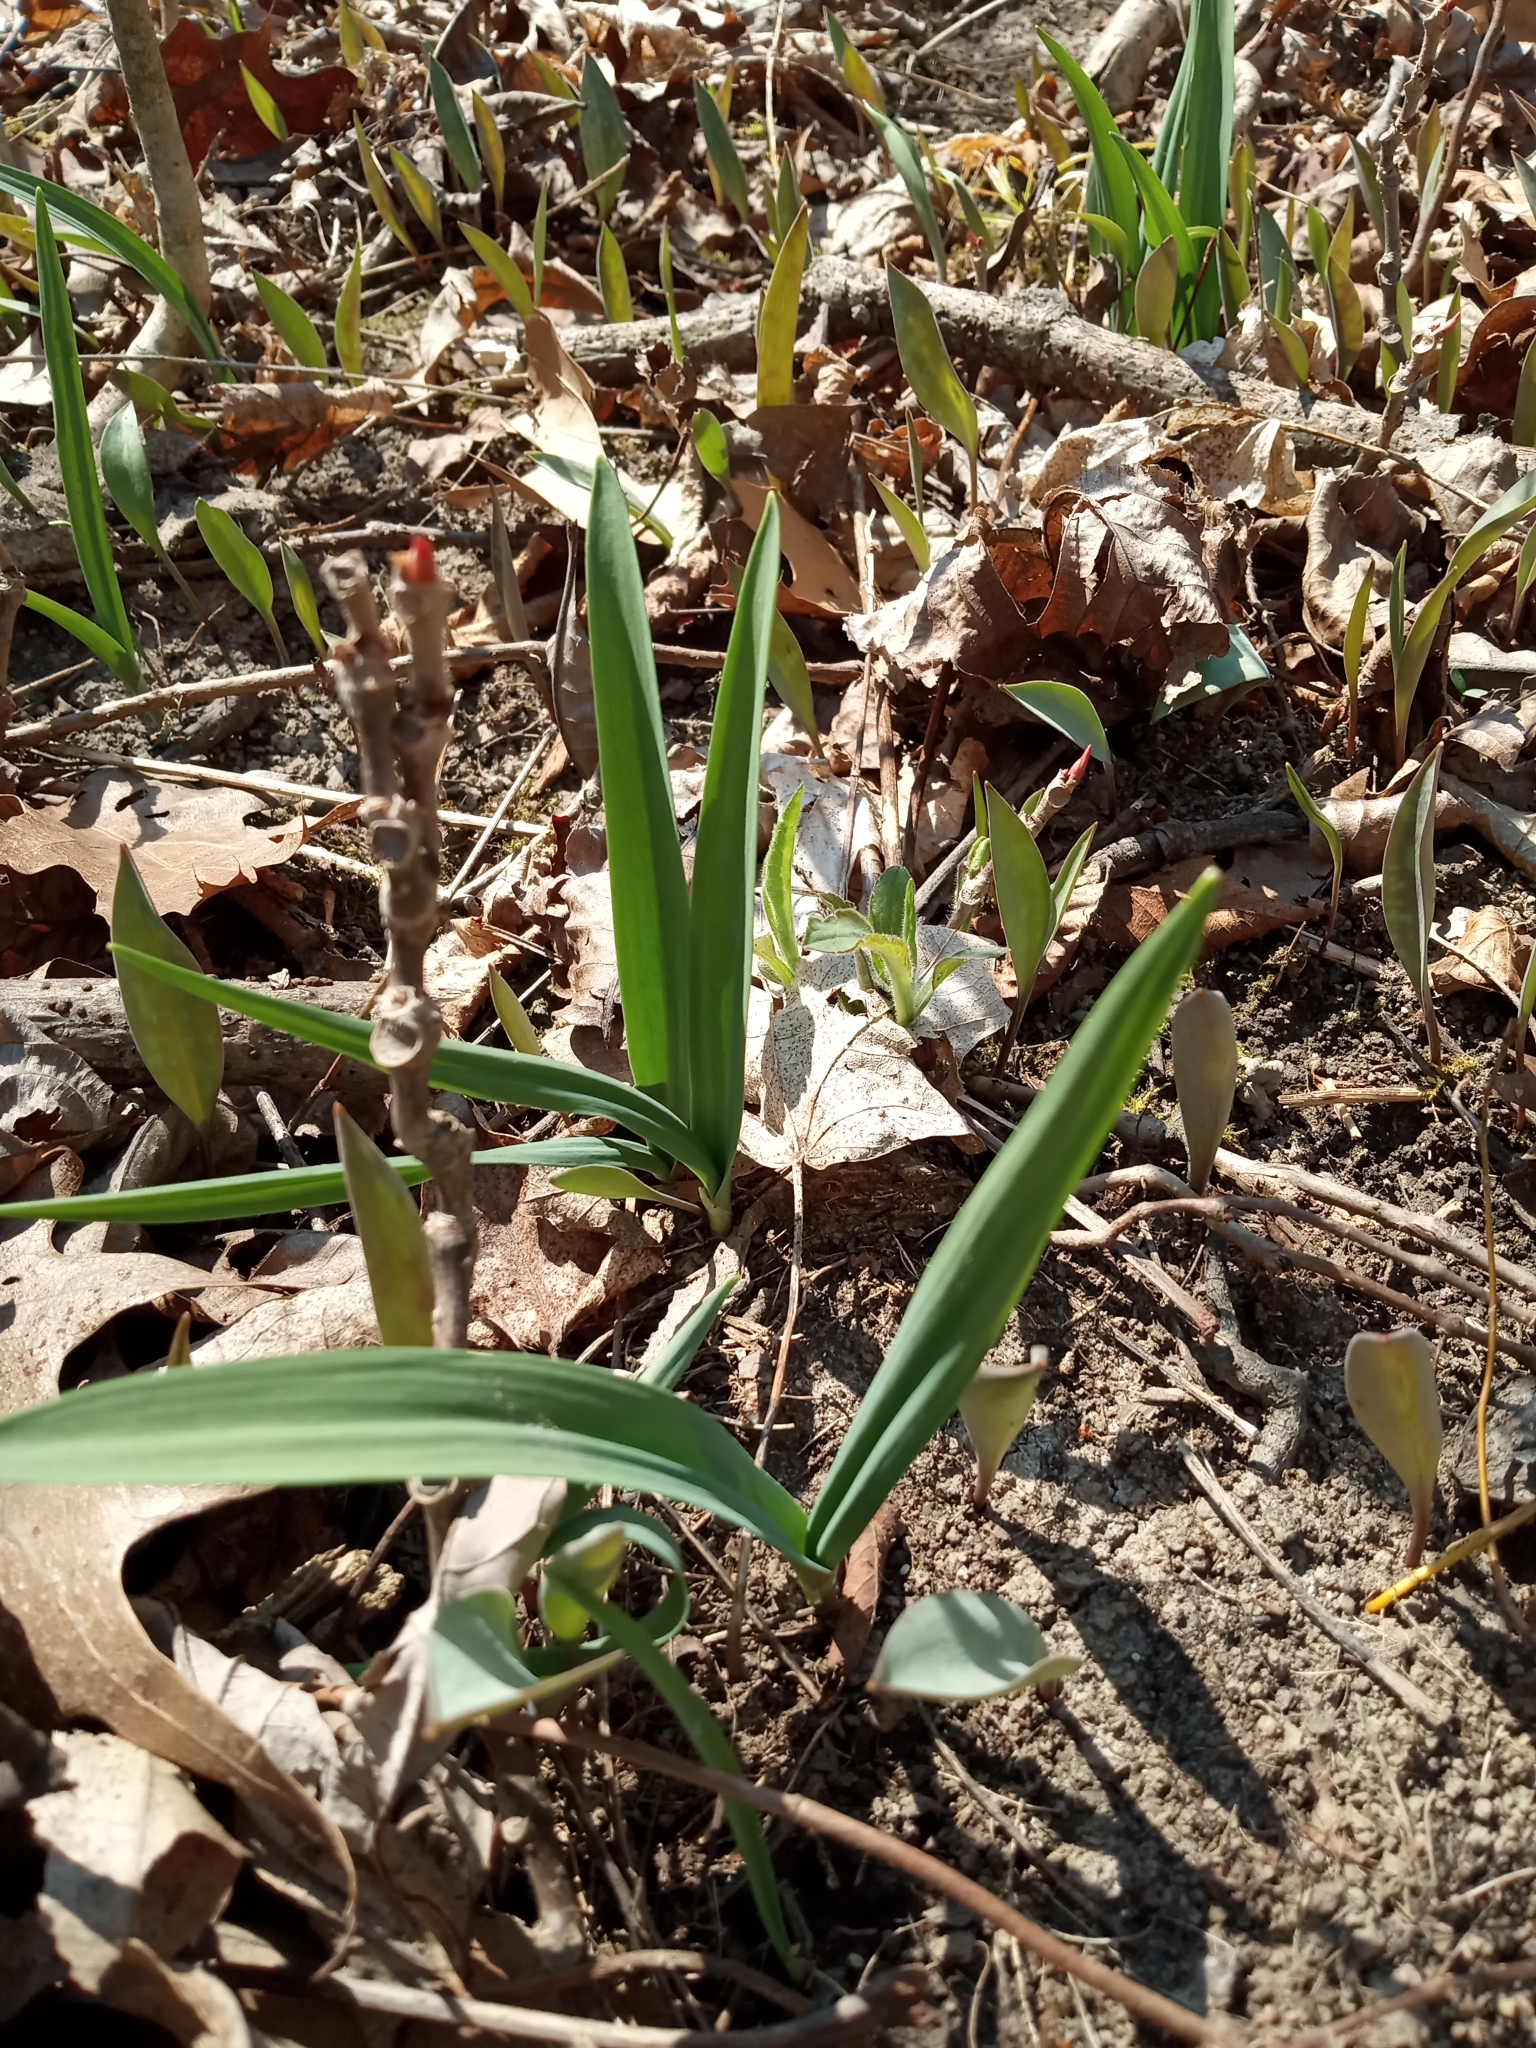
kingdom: Plantae
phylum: Tracheophyta
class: Liliopsida
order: Asparagales
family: Amaryllidaceae
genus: Allium
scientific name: Allium tricoccum
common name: Ramp
